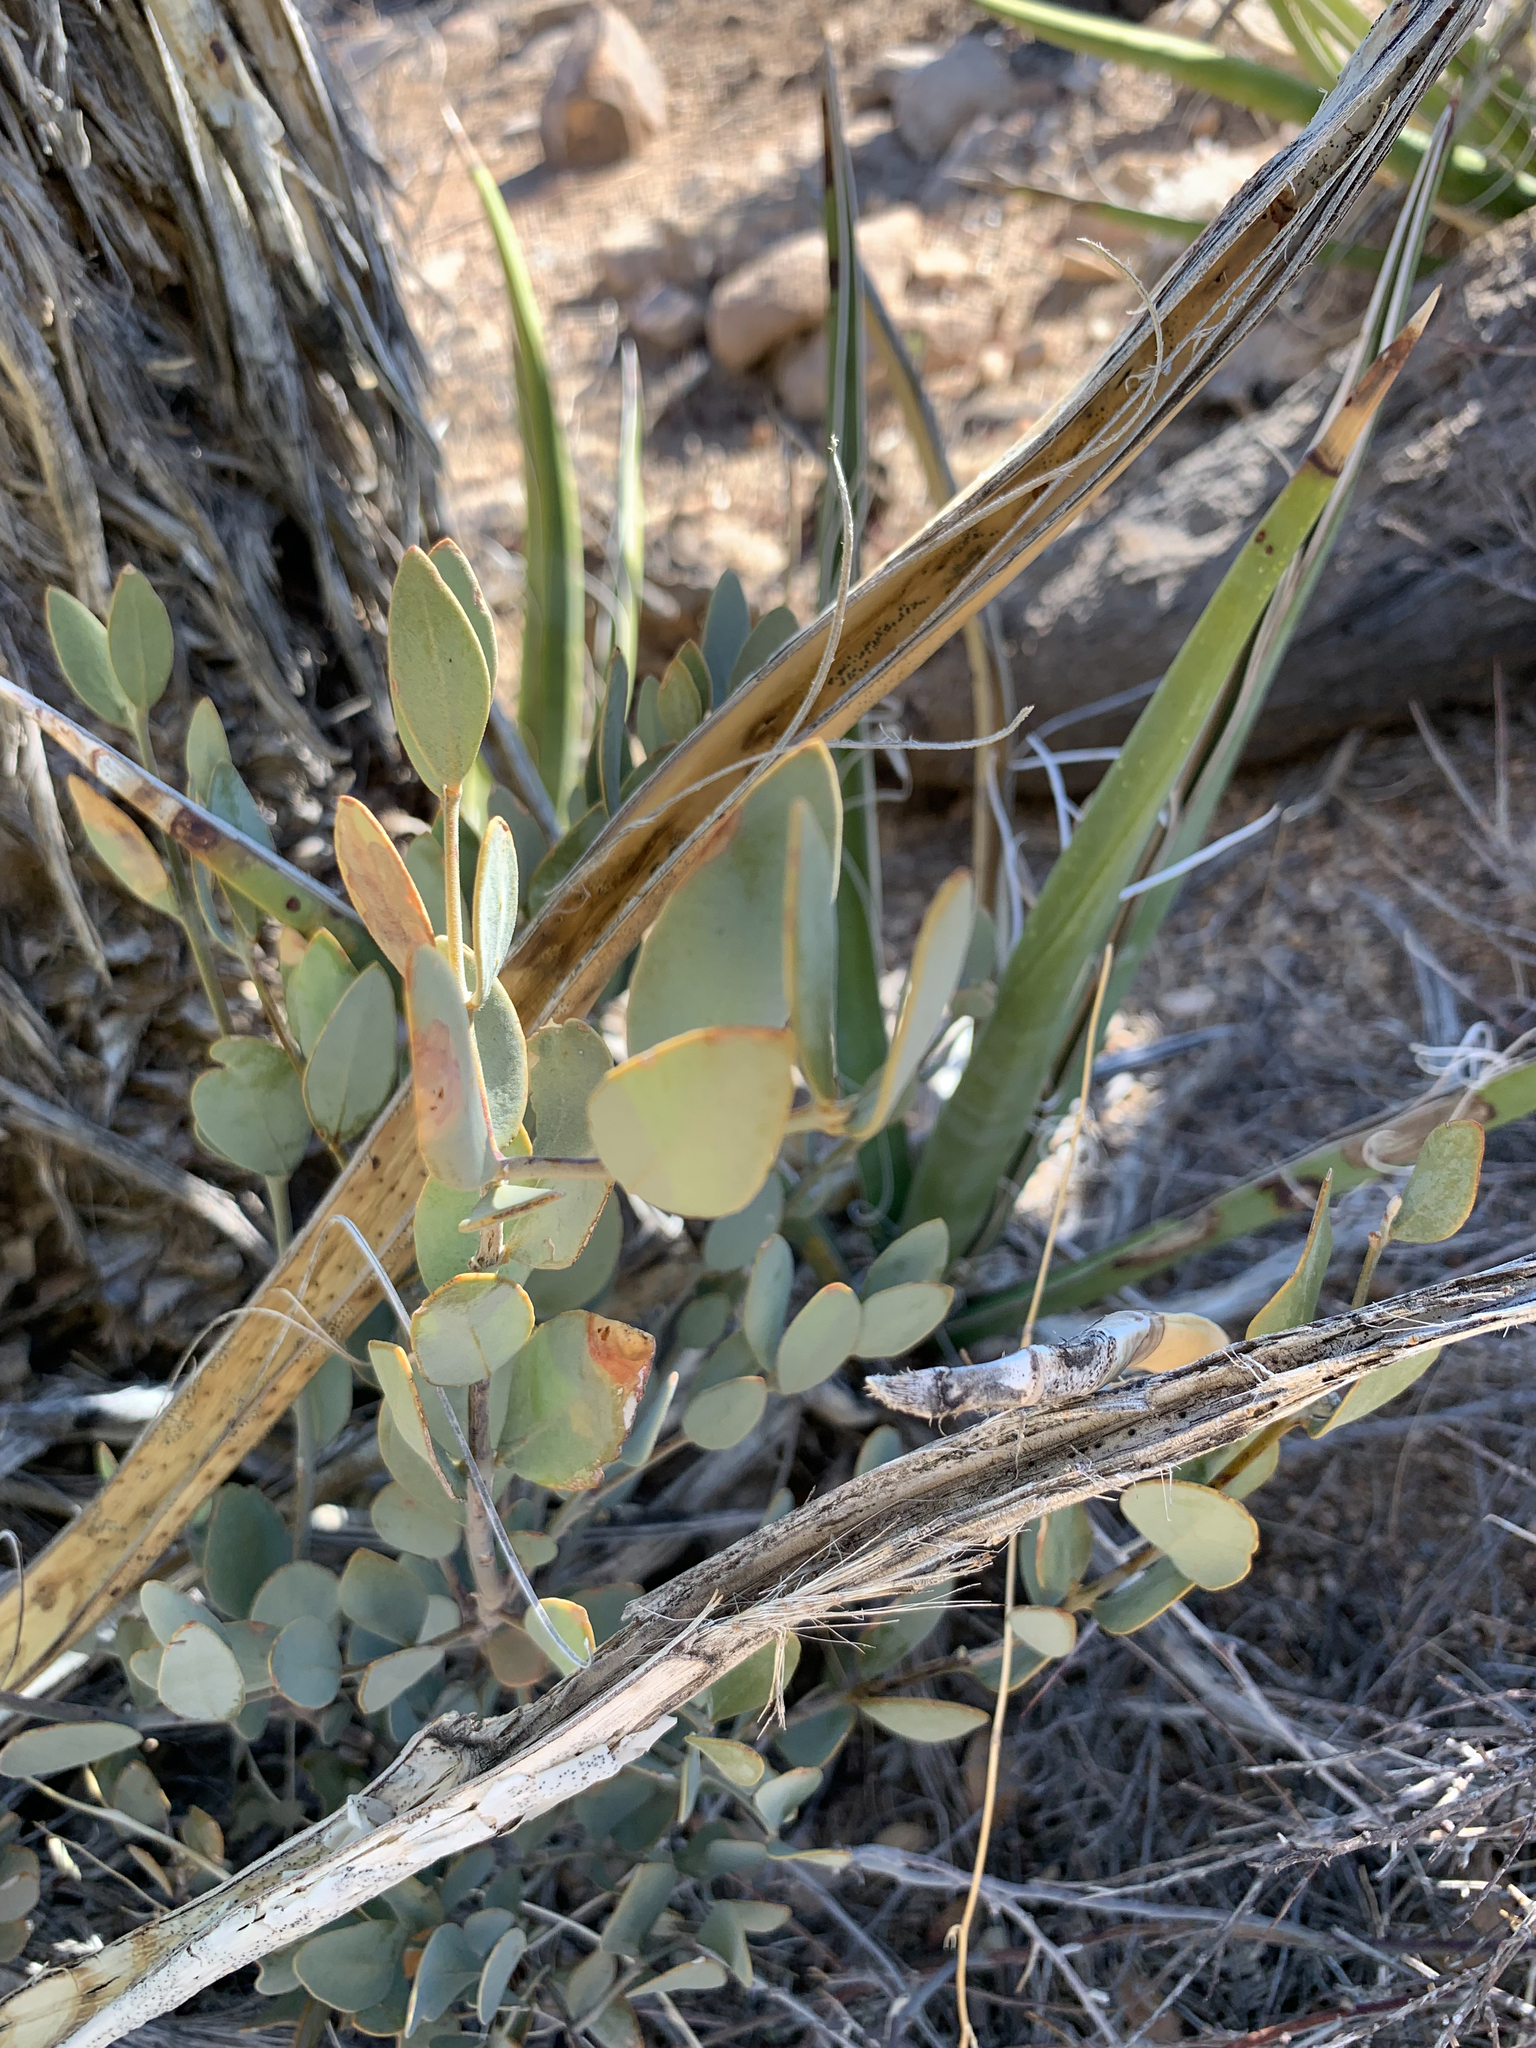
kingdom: Plantae
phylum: Tracheophyta
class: Magnoliopsida
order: Caryophyllales
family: Simmondsiaceae
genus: Simmondsia
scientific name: Simmondsia chinensis
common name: Jojoba
